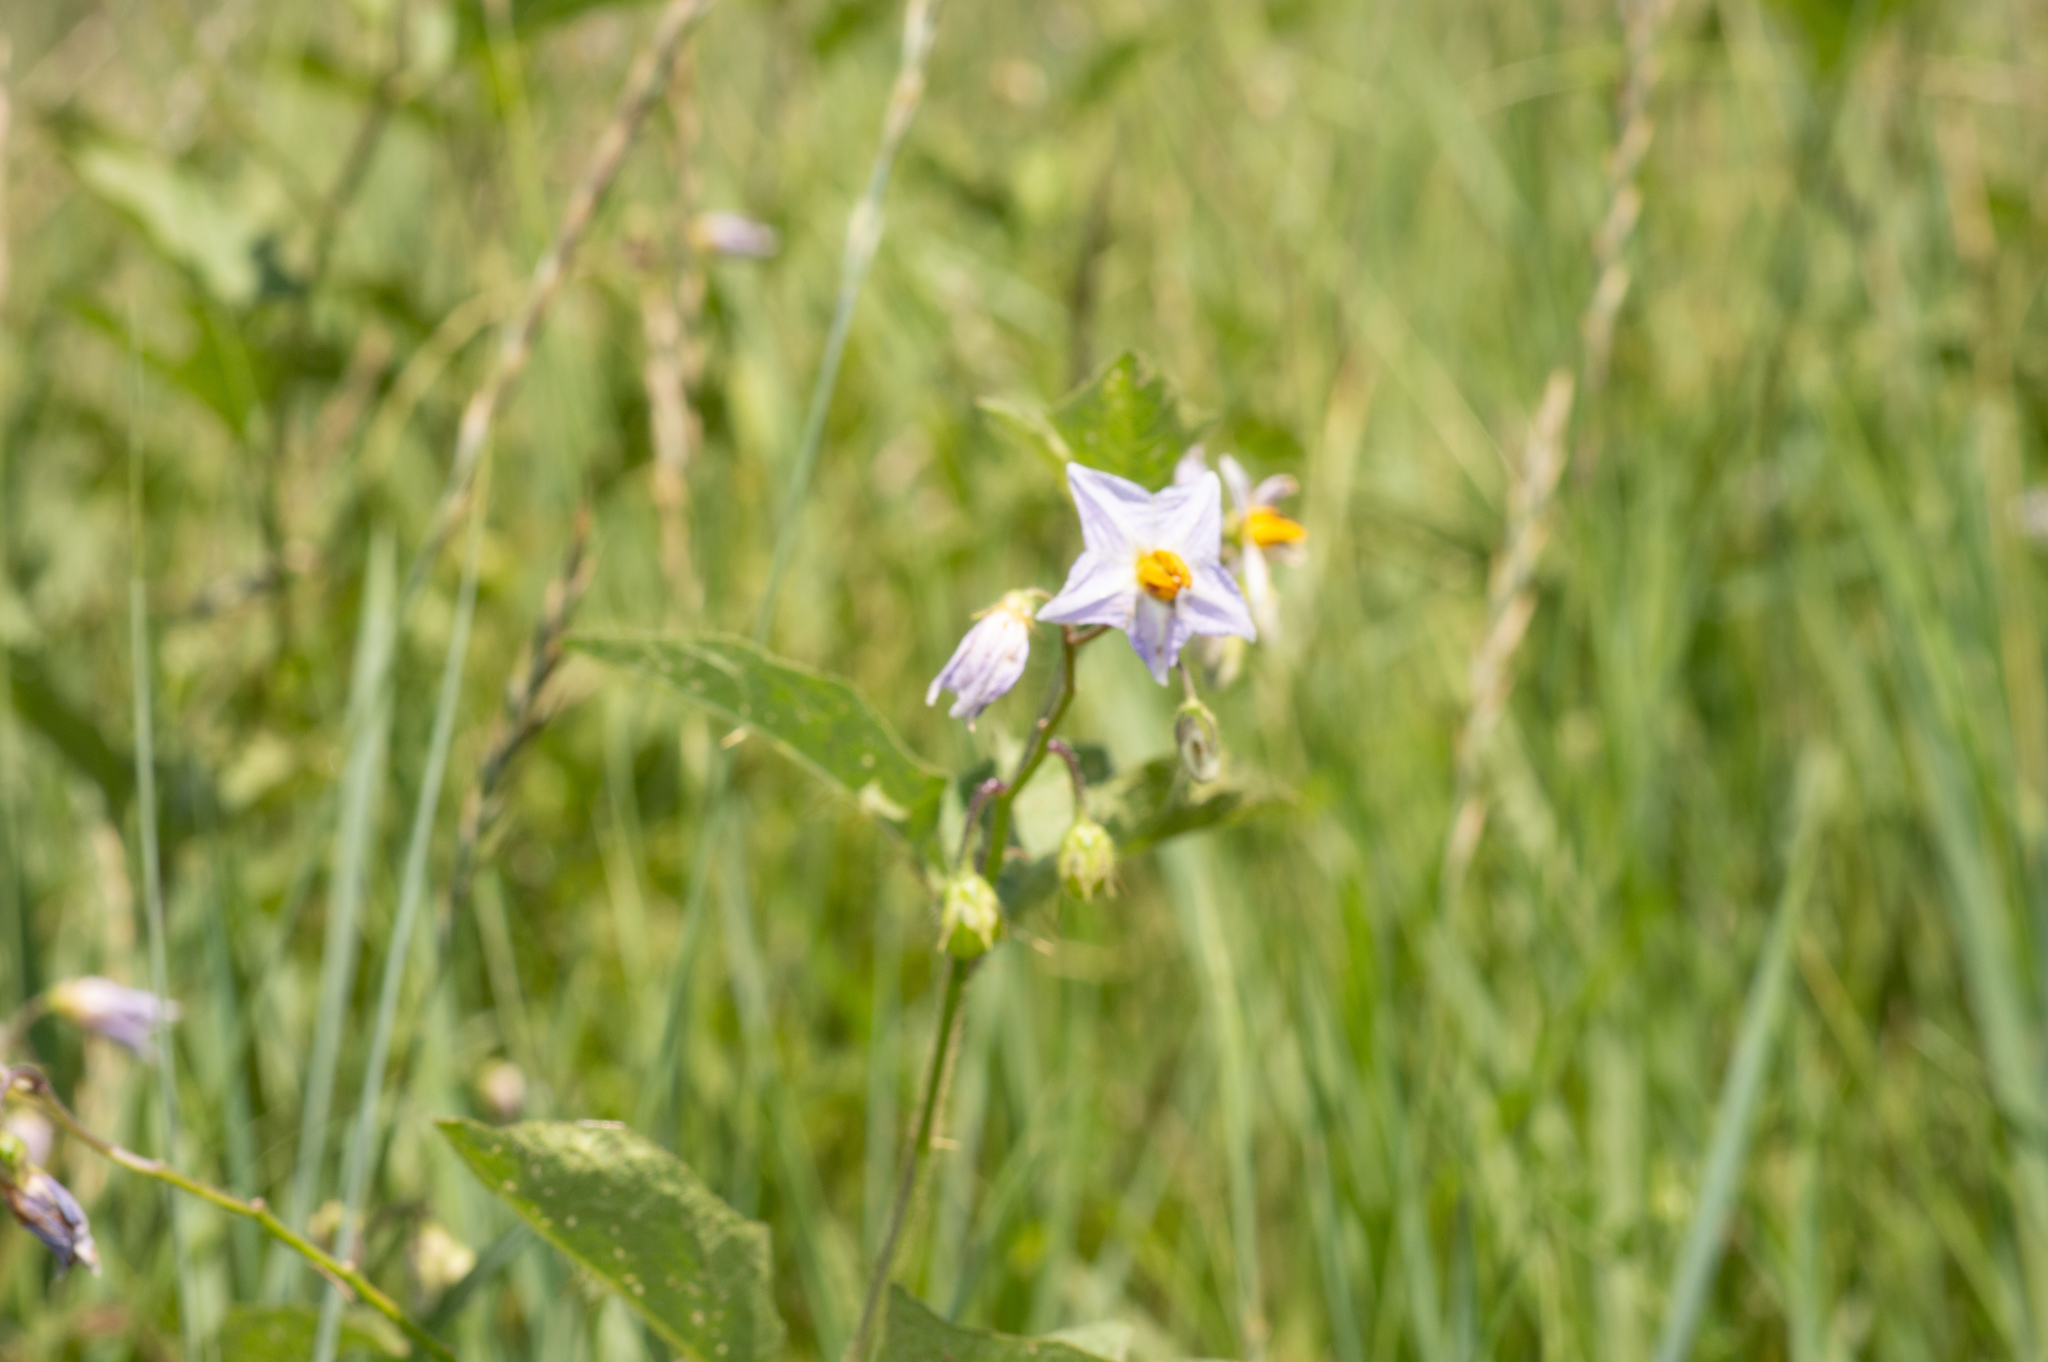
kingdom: Plantae
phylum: Tracheophyta
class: Magnoliopsida
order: Solanales
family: Solanaceae
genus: Solanum
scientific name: Solanum carolinense
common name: Horse-nettle
